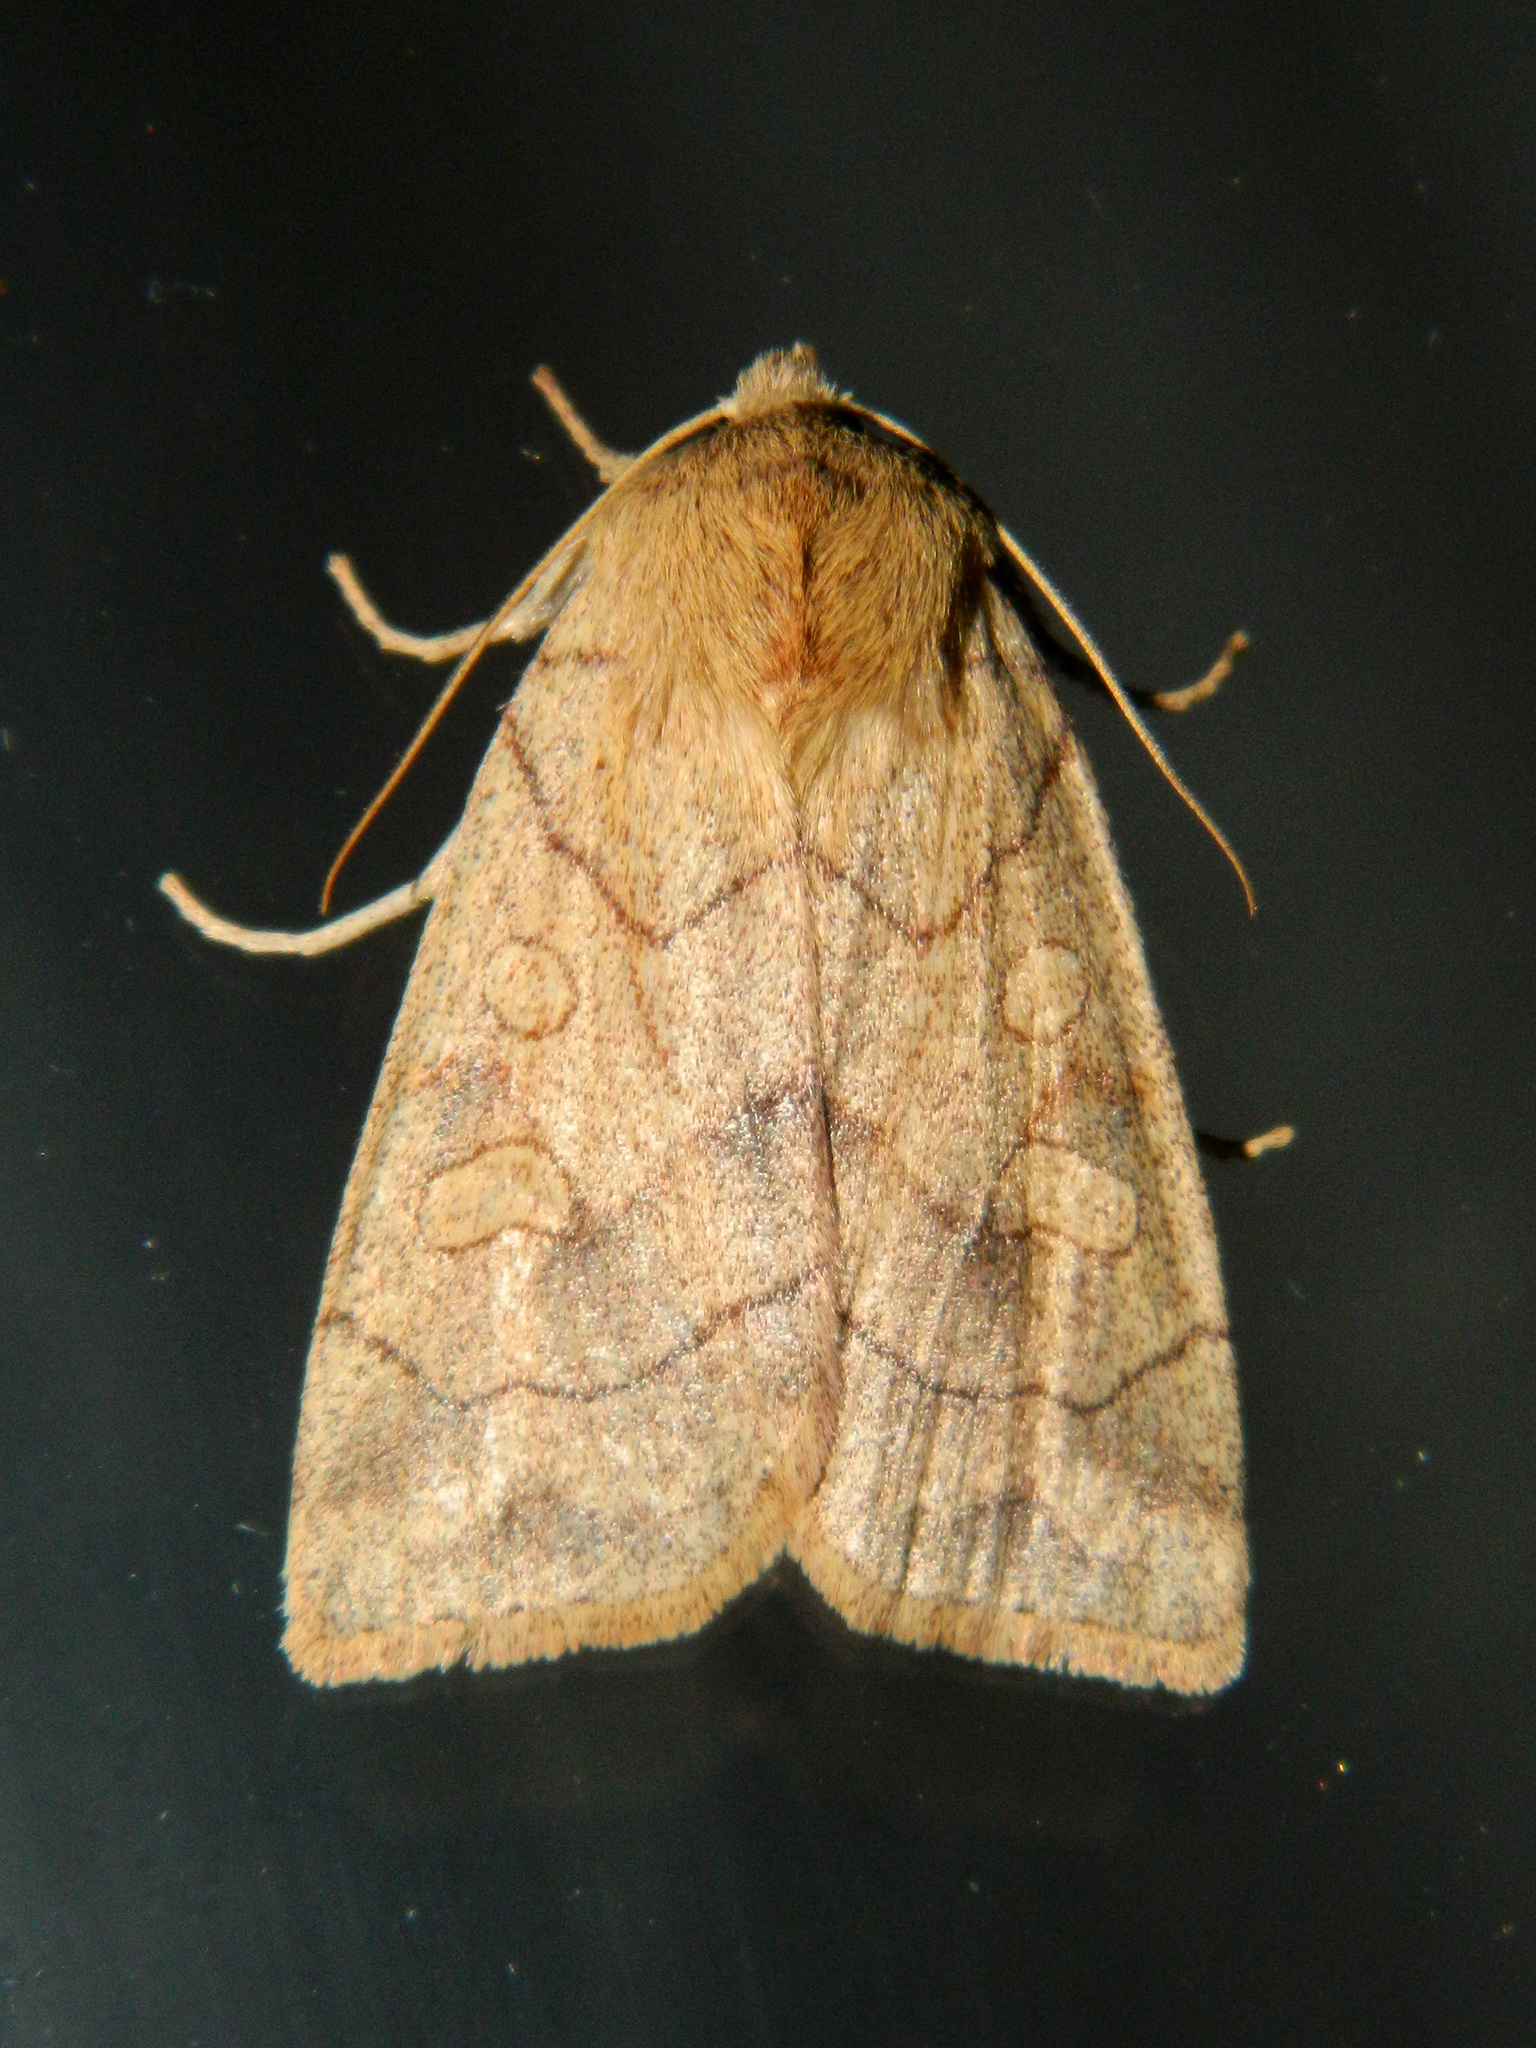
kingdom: Animalia
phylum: Arthropoda
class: Insecta
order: Lepidoptera
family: Noctuidae
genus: Enargia
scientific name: Enargia decolor
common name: Aspen twoleaf tier moth
